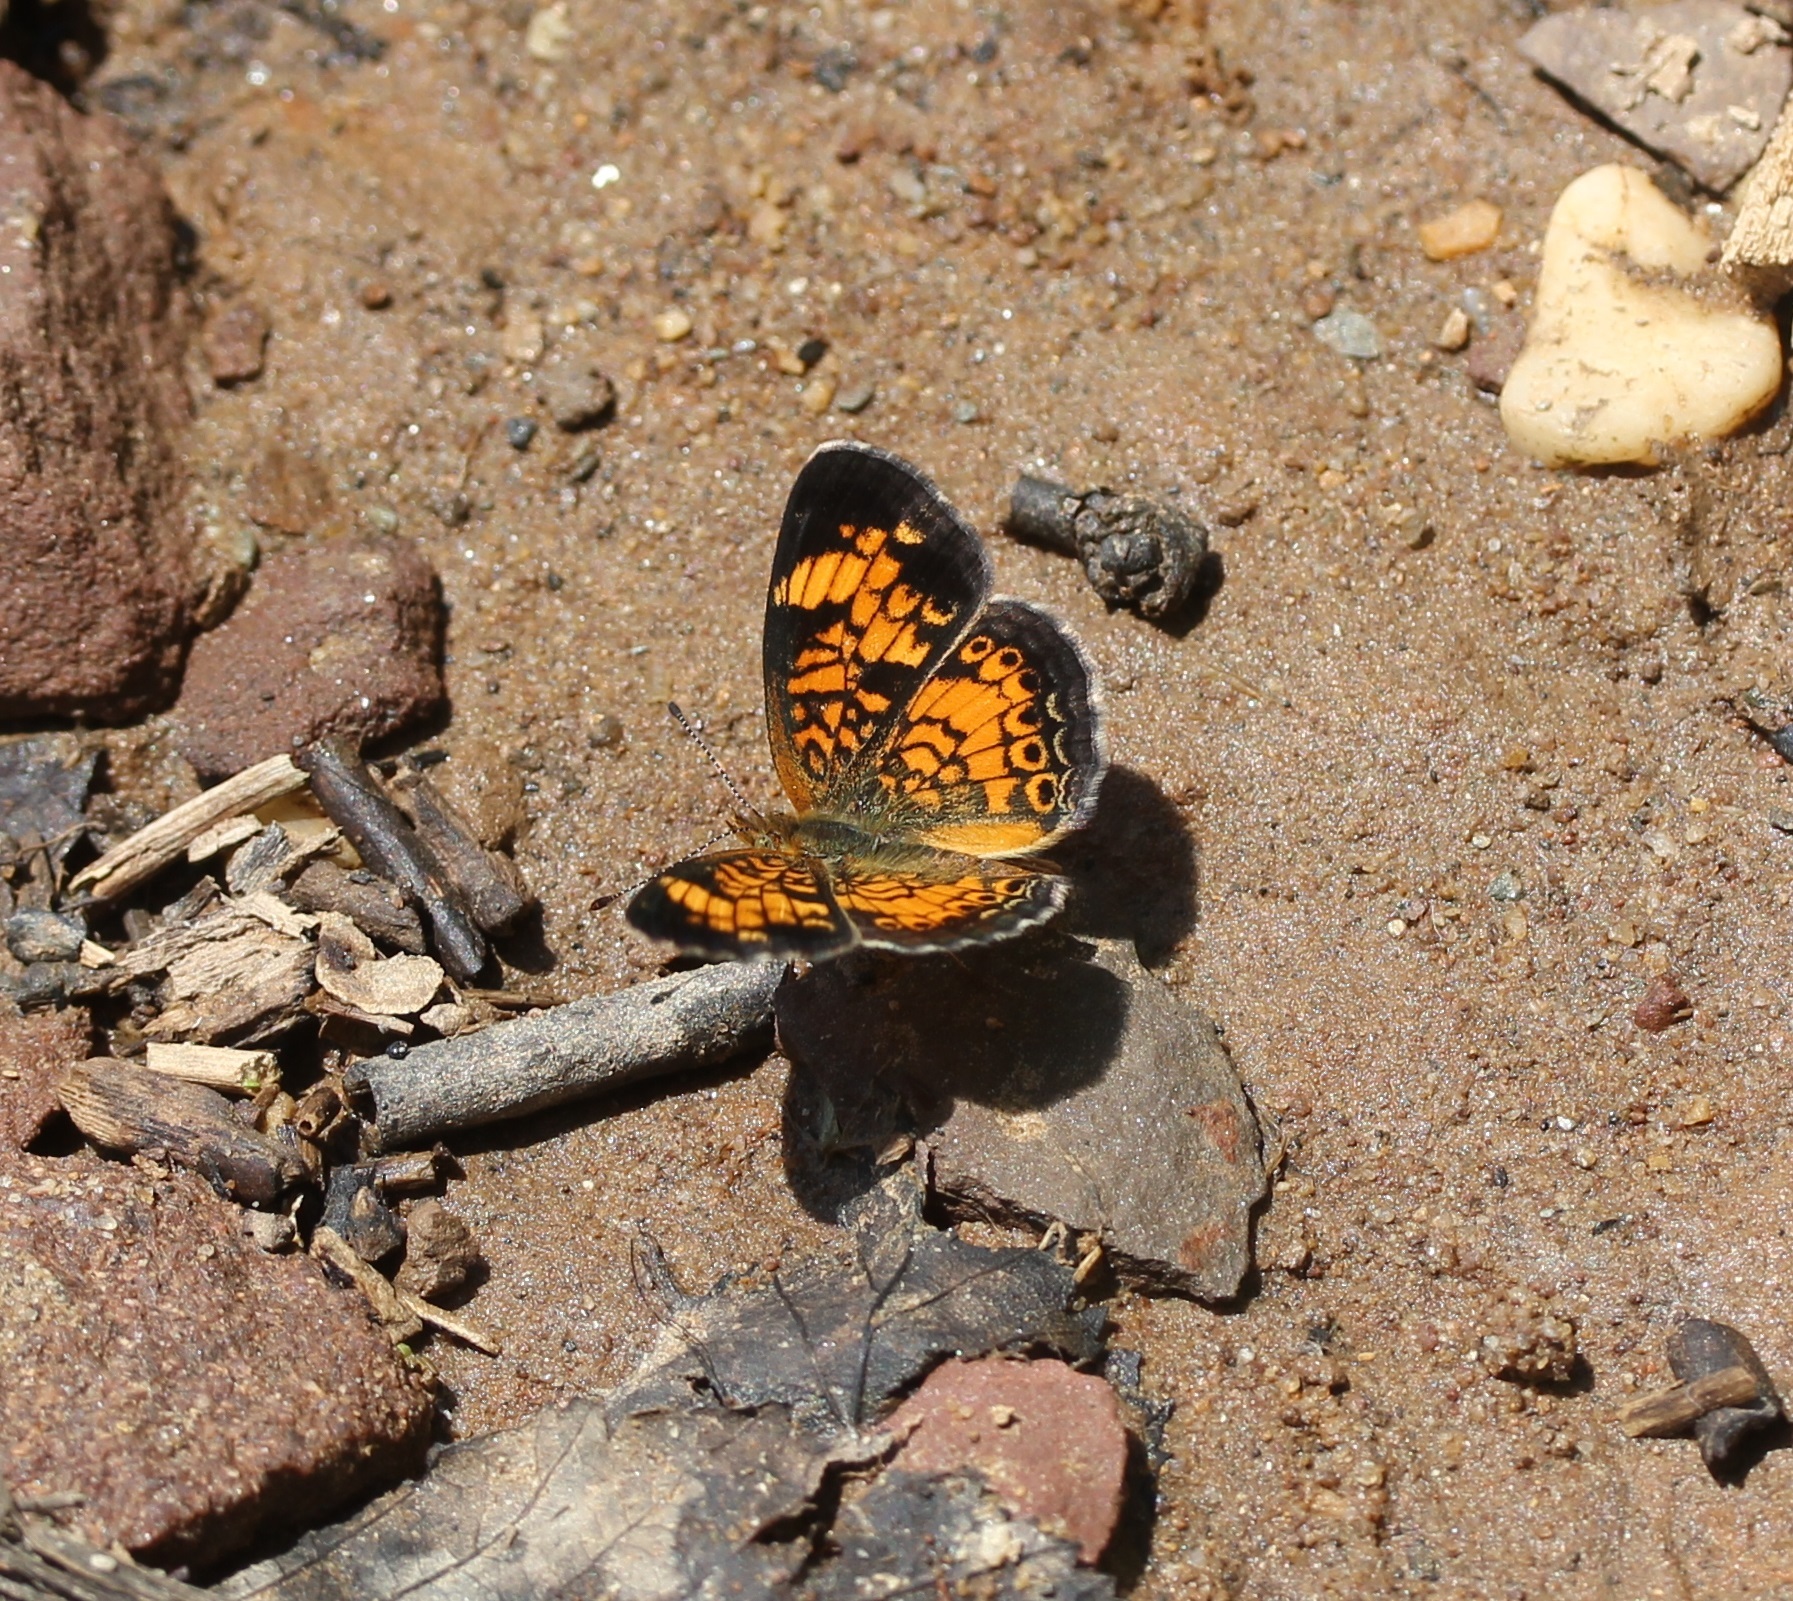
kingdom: Animalia
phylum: Arthropoda
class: Insecta
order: Lepidoptera
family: Nymphalidae
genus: Phyciodes
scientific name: Phyciodes tharos
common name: Pearl crescent
